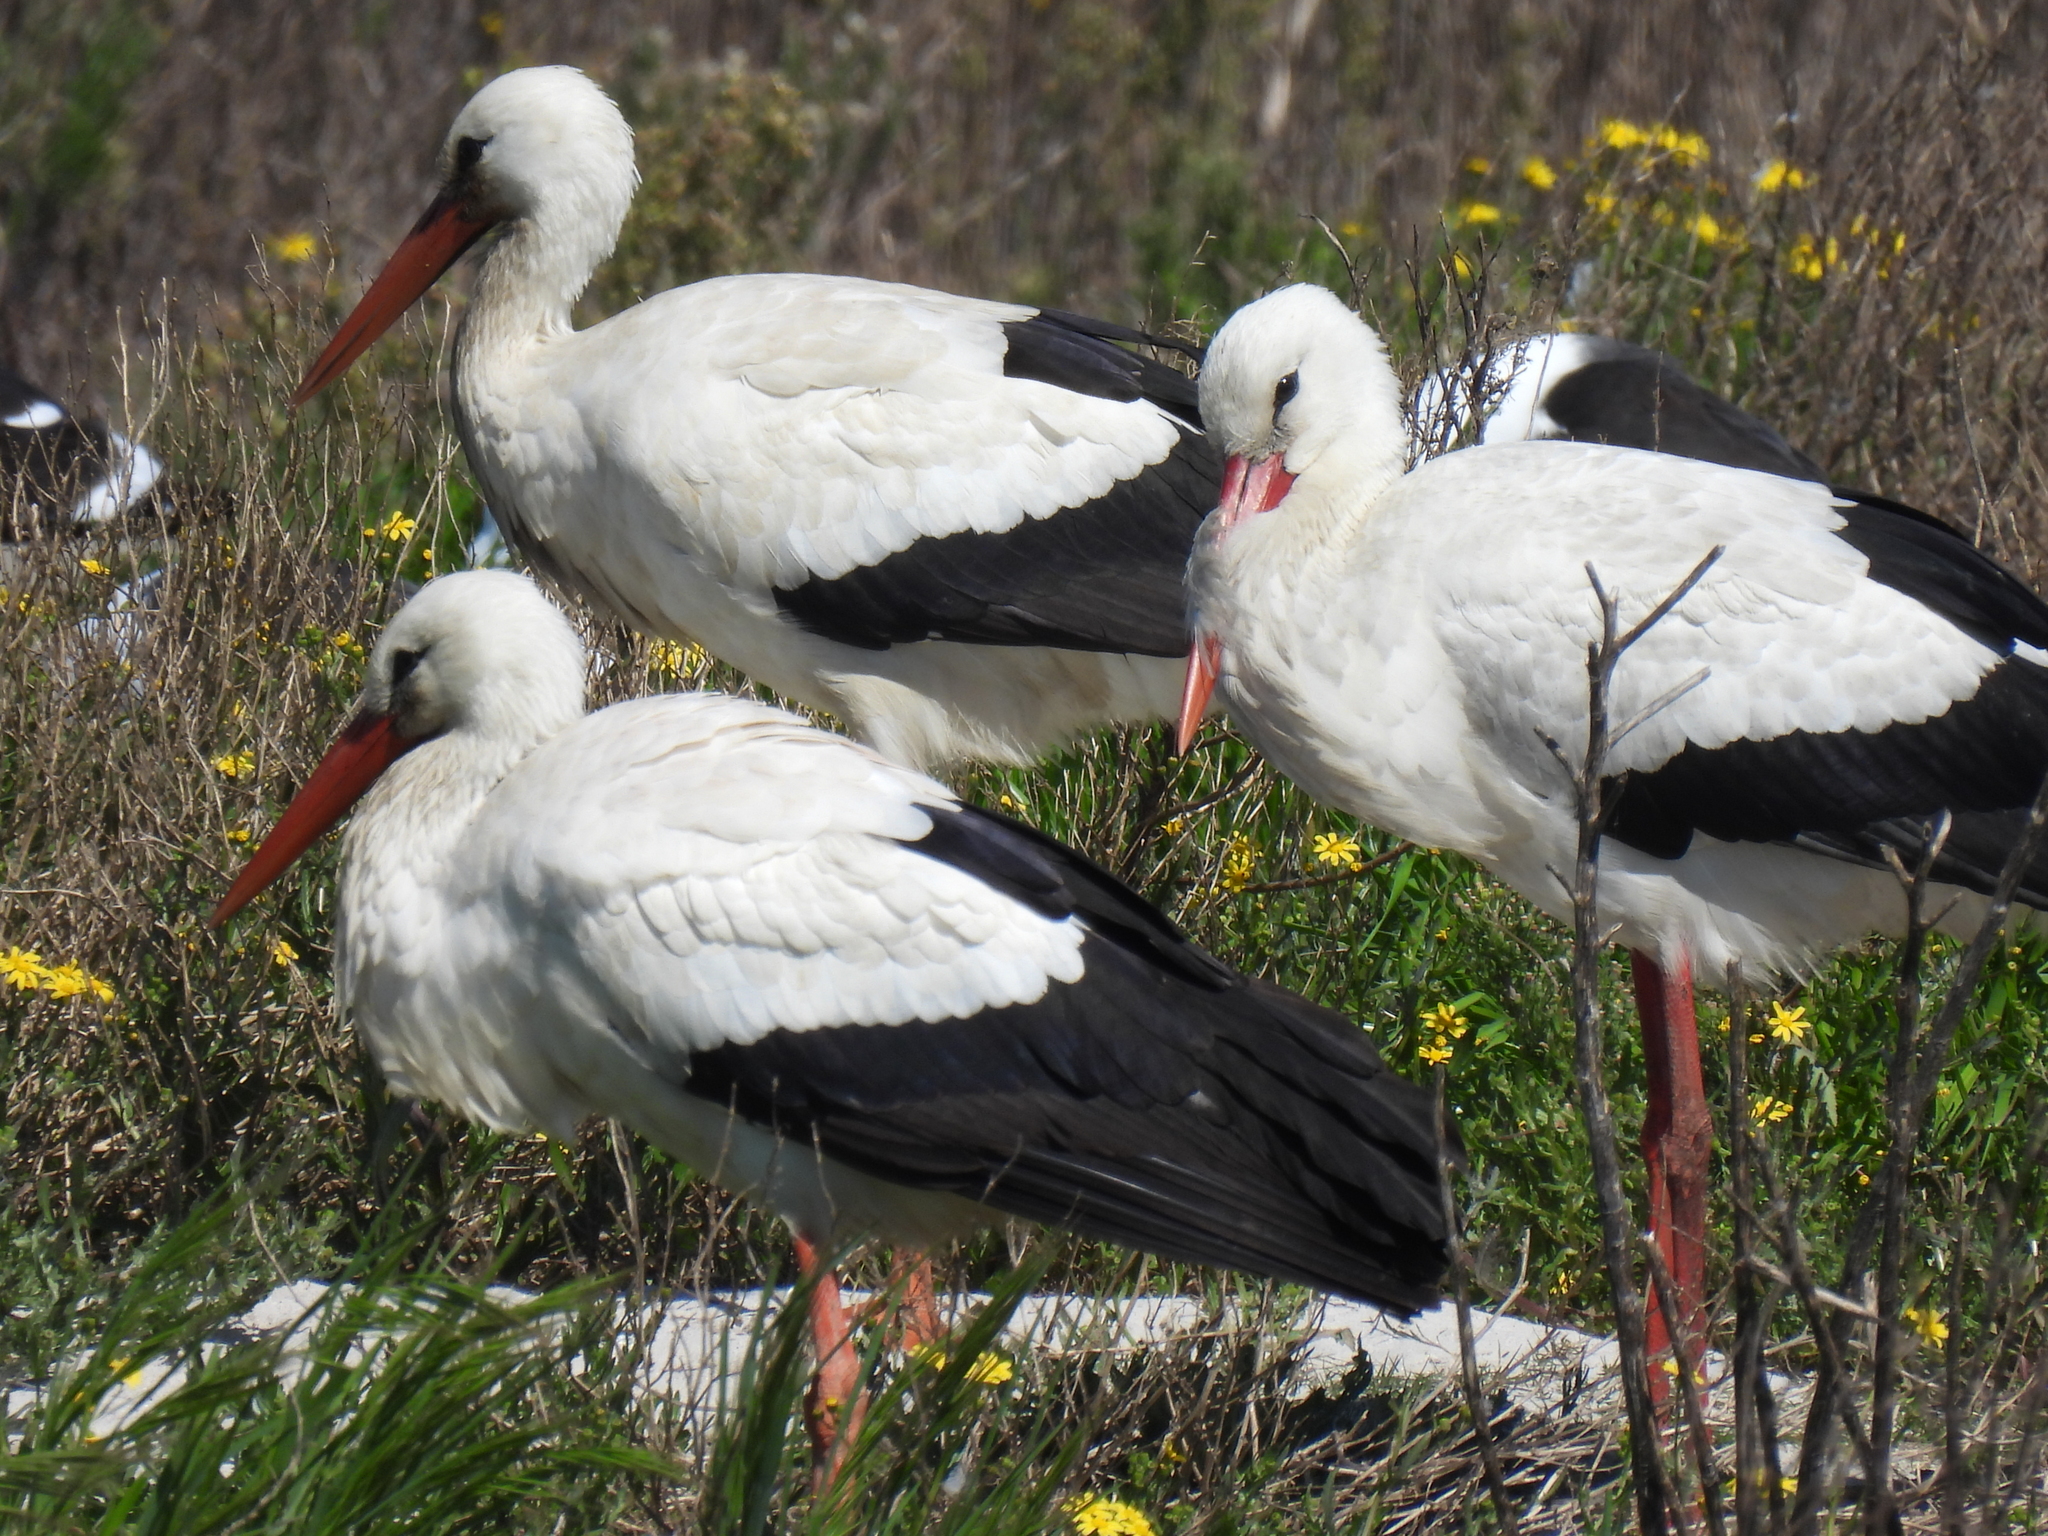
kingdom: Animalia
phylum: Chordata
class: Aves
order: Ciconiiformes
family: Ciconiidae
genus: Ciconia
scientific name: Ciconia ciconia
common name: White stork
